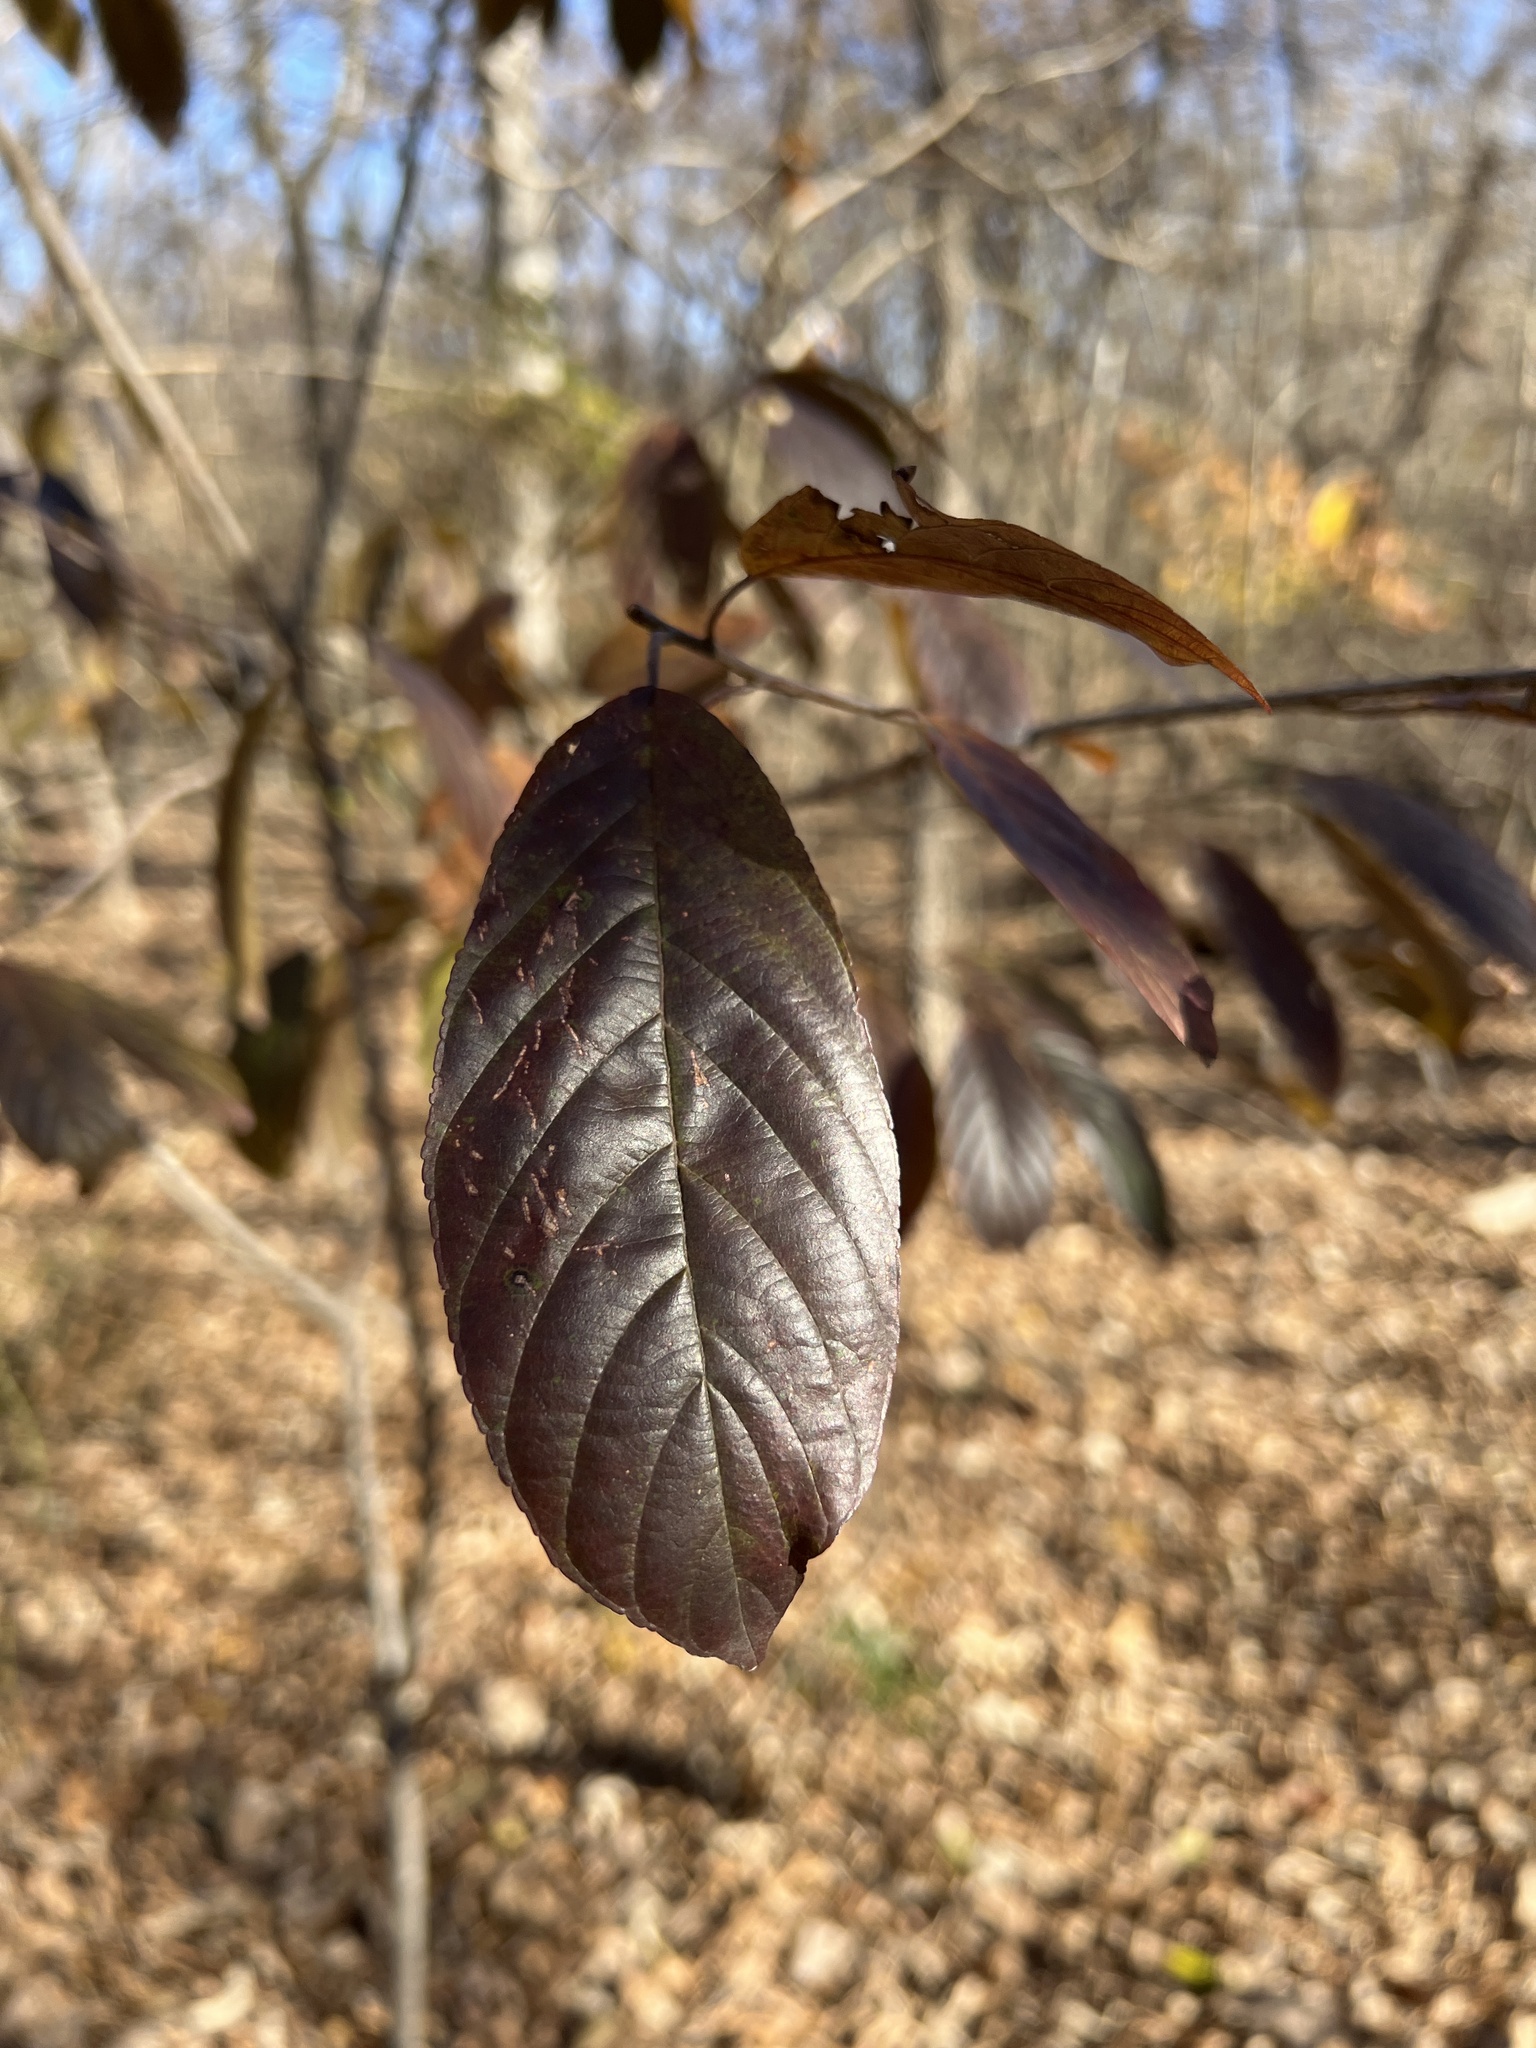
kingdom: Plantae
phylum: Tracheophyta
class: Magnoliopsida
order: Rosales
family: Rhamnaceae
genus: Frangula
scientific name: Frangula caroliniana
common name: Carolina buckthorn
